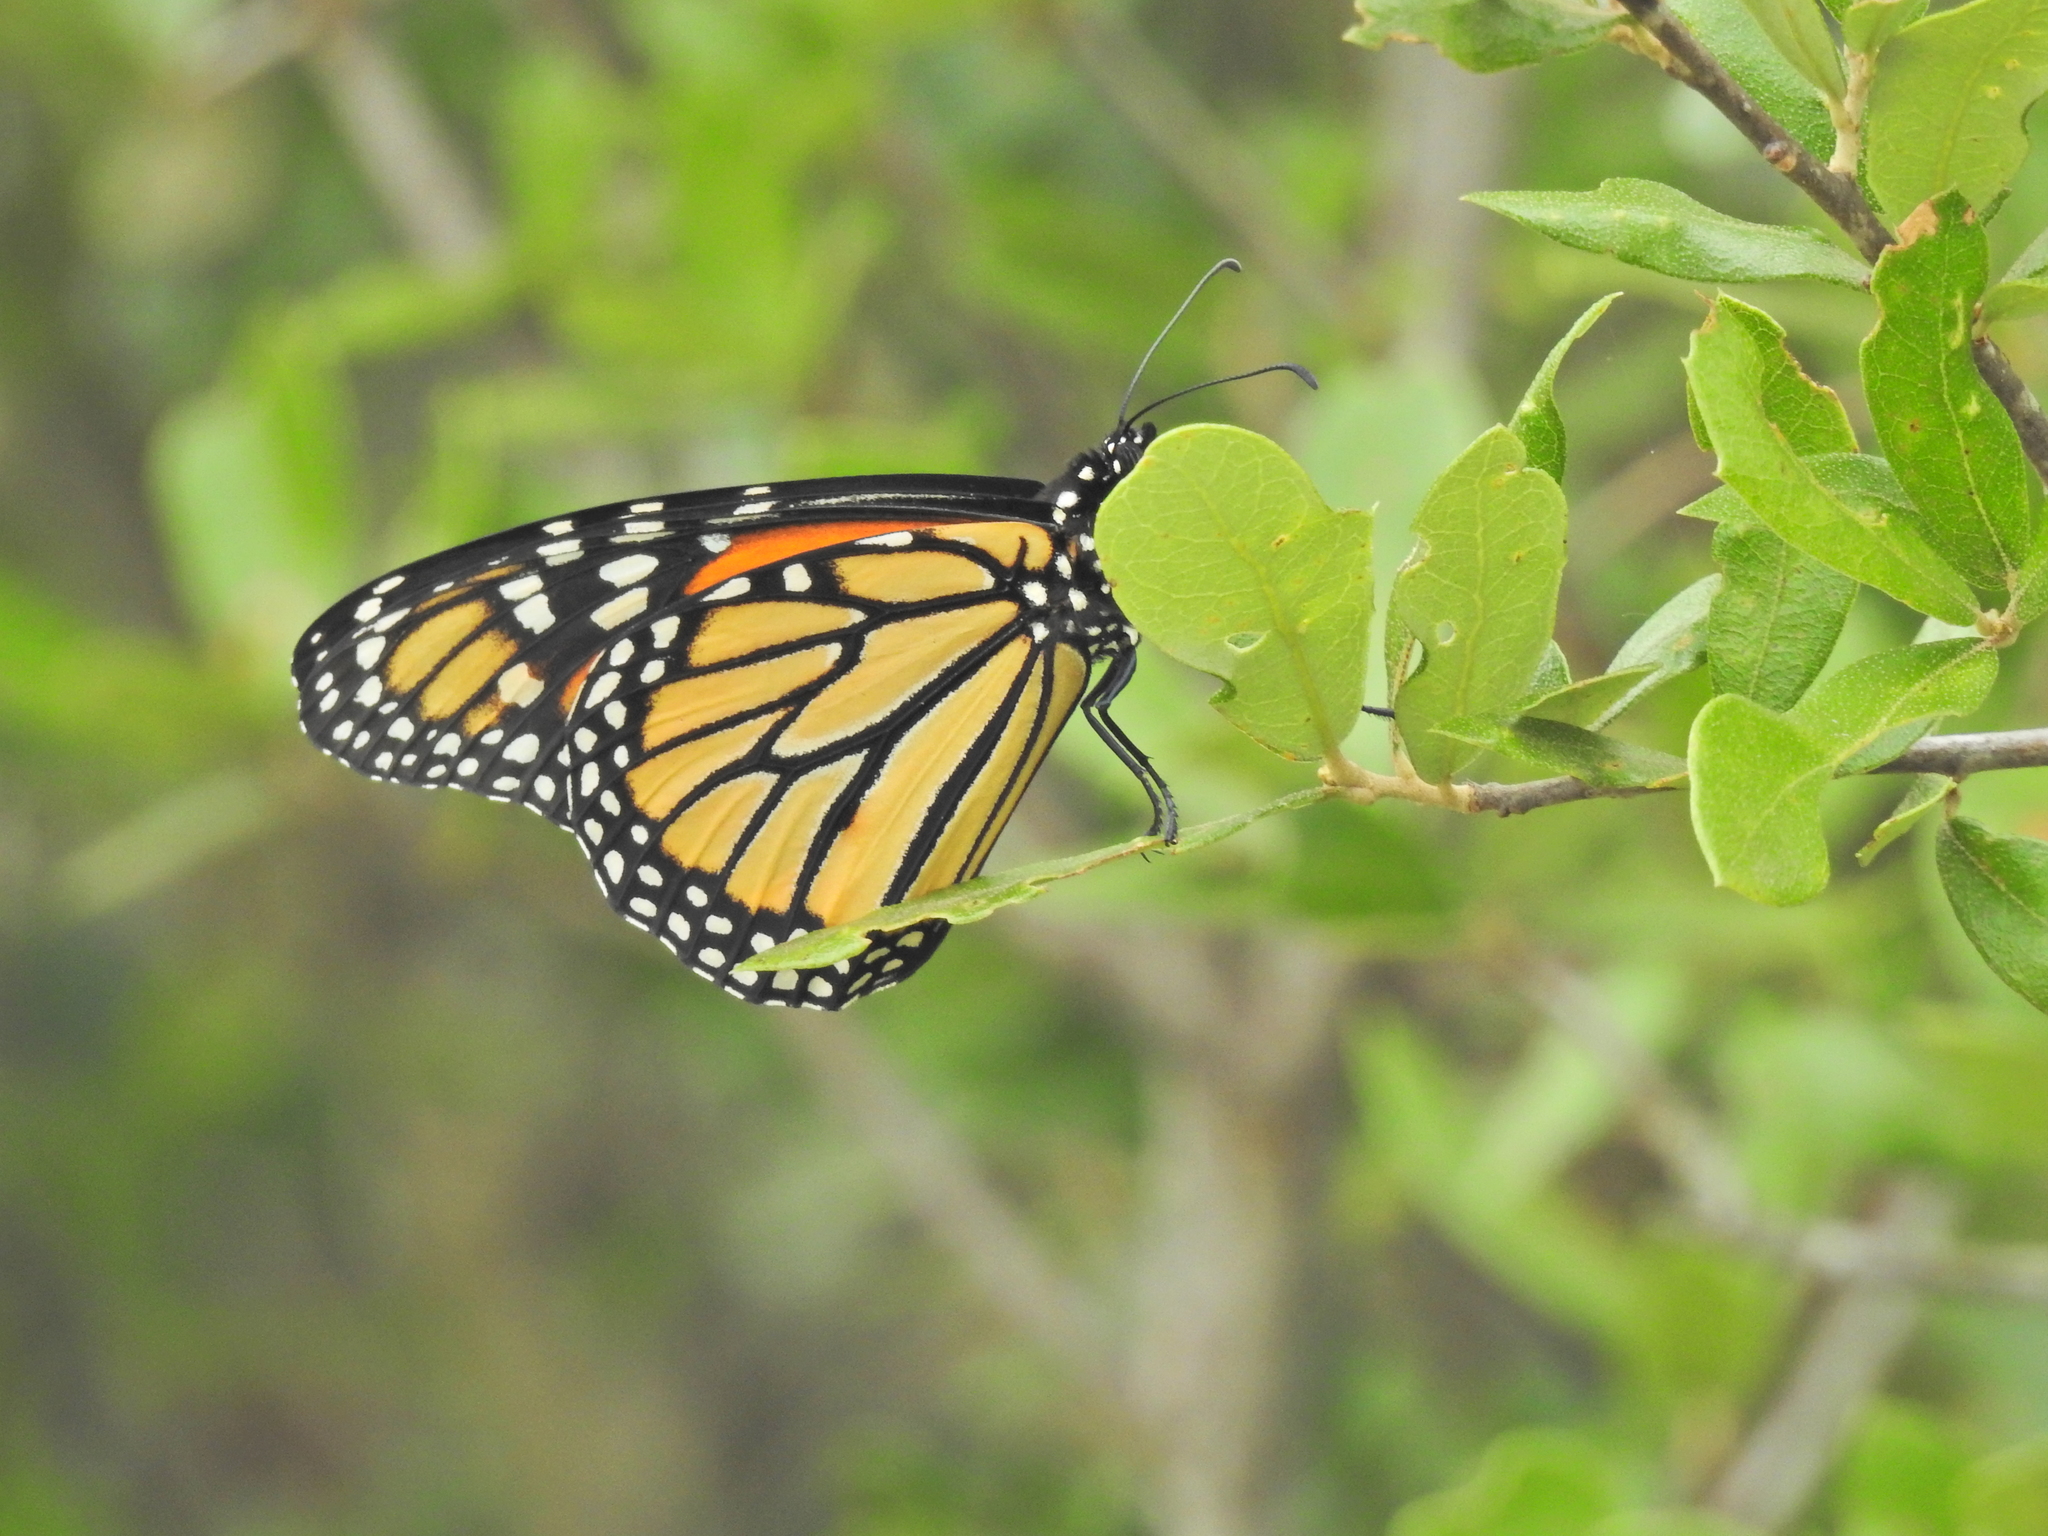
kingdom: Animalia
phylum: Arthropoda
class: Insecta
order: Lepidoptera
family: Nymphalidae
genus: Danaus
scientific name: Danaus plexippus
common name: Monarch
